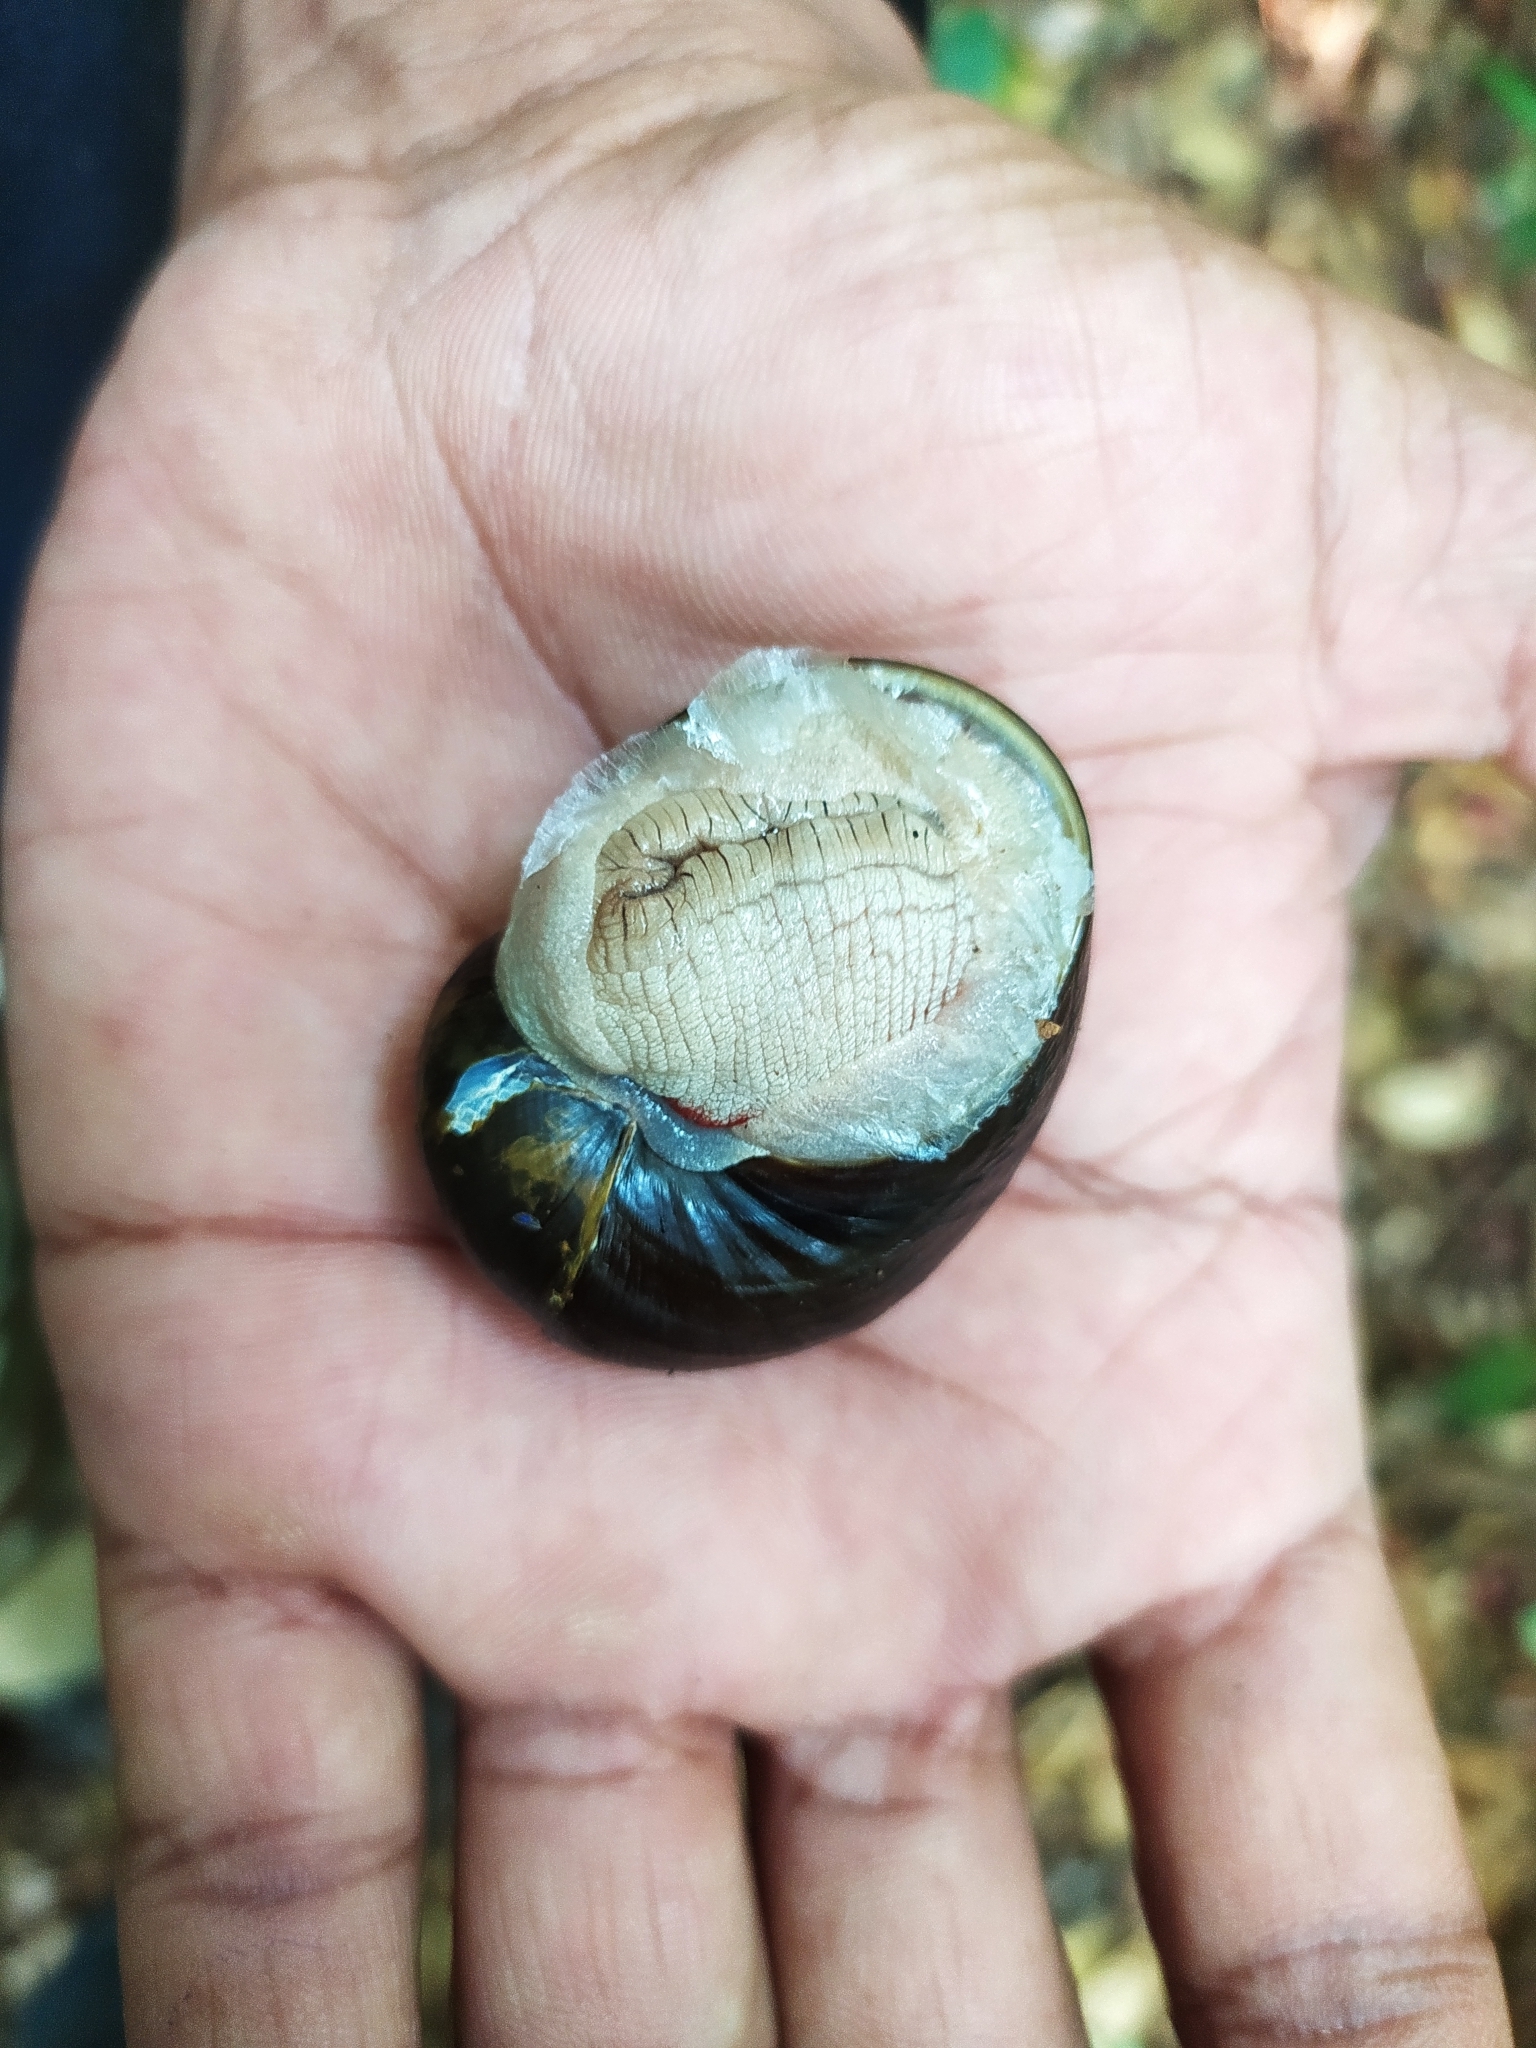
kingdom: Animalia
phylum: Mollusca
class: Gastropoda
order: Stylommatophora
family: Ariophantidae
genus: Indrella
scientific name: Indrella ampulla
